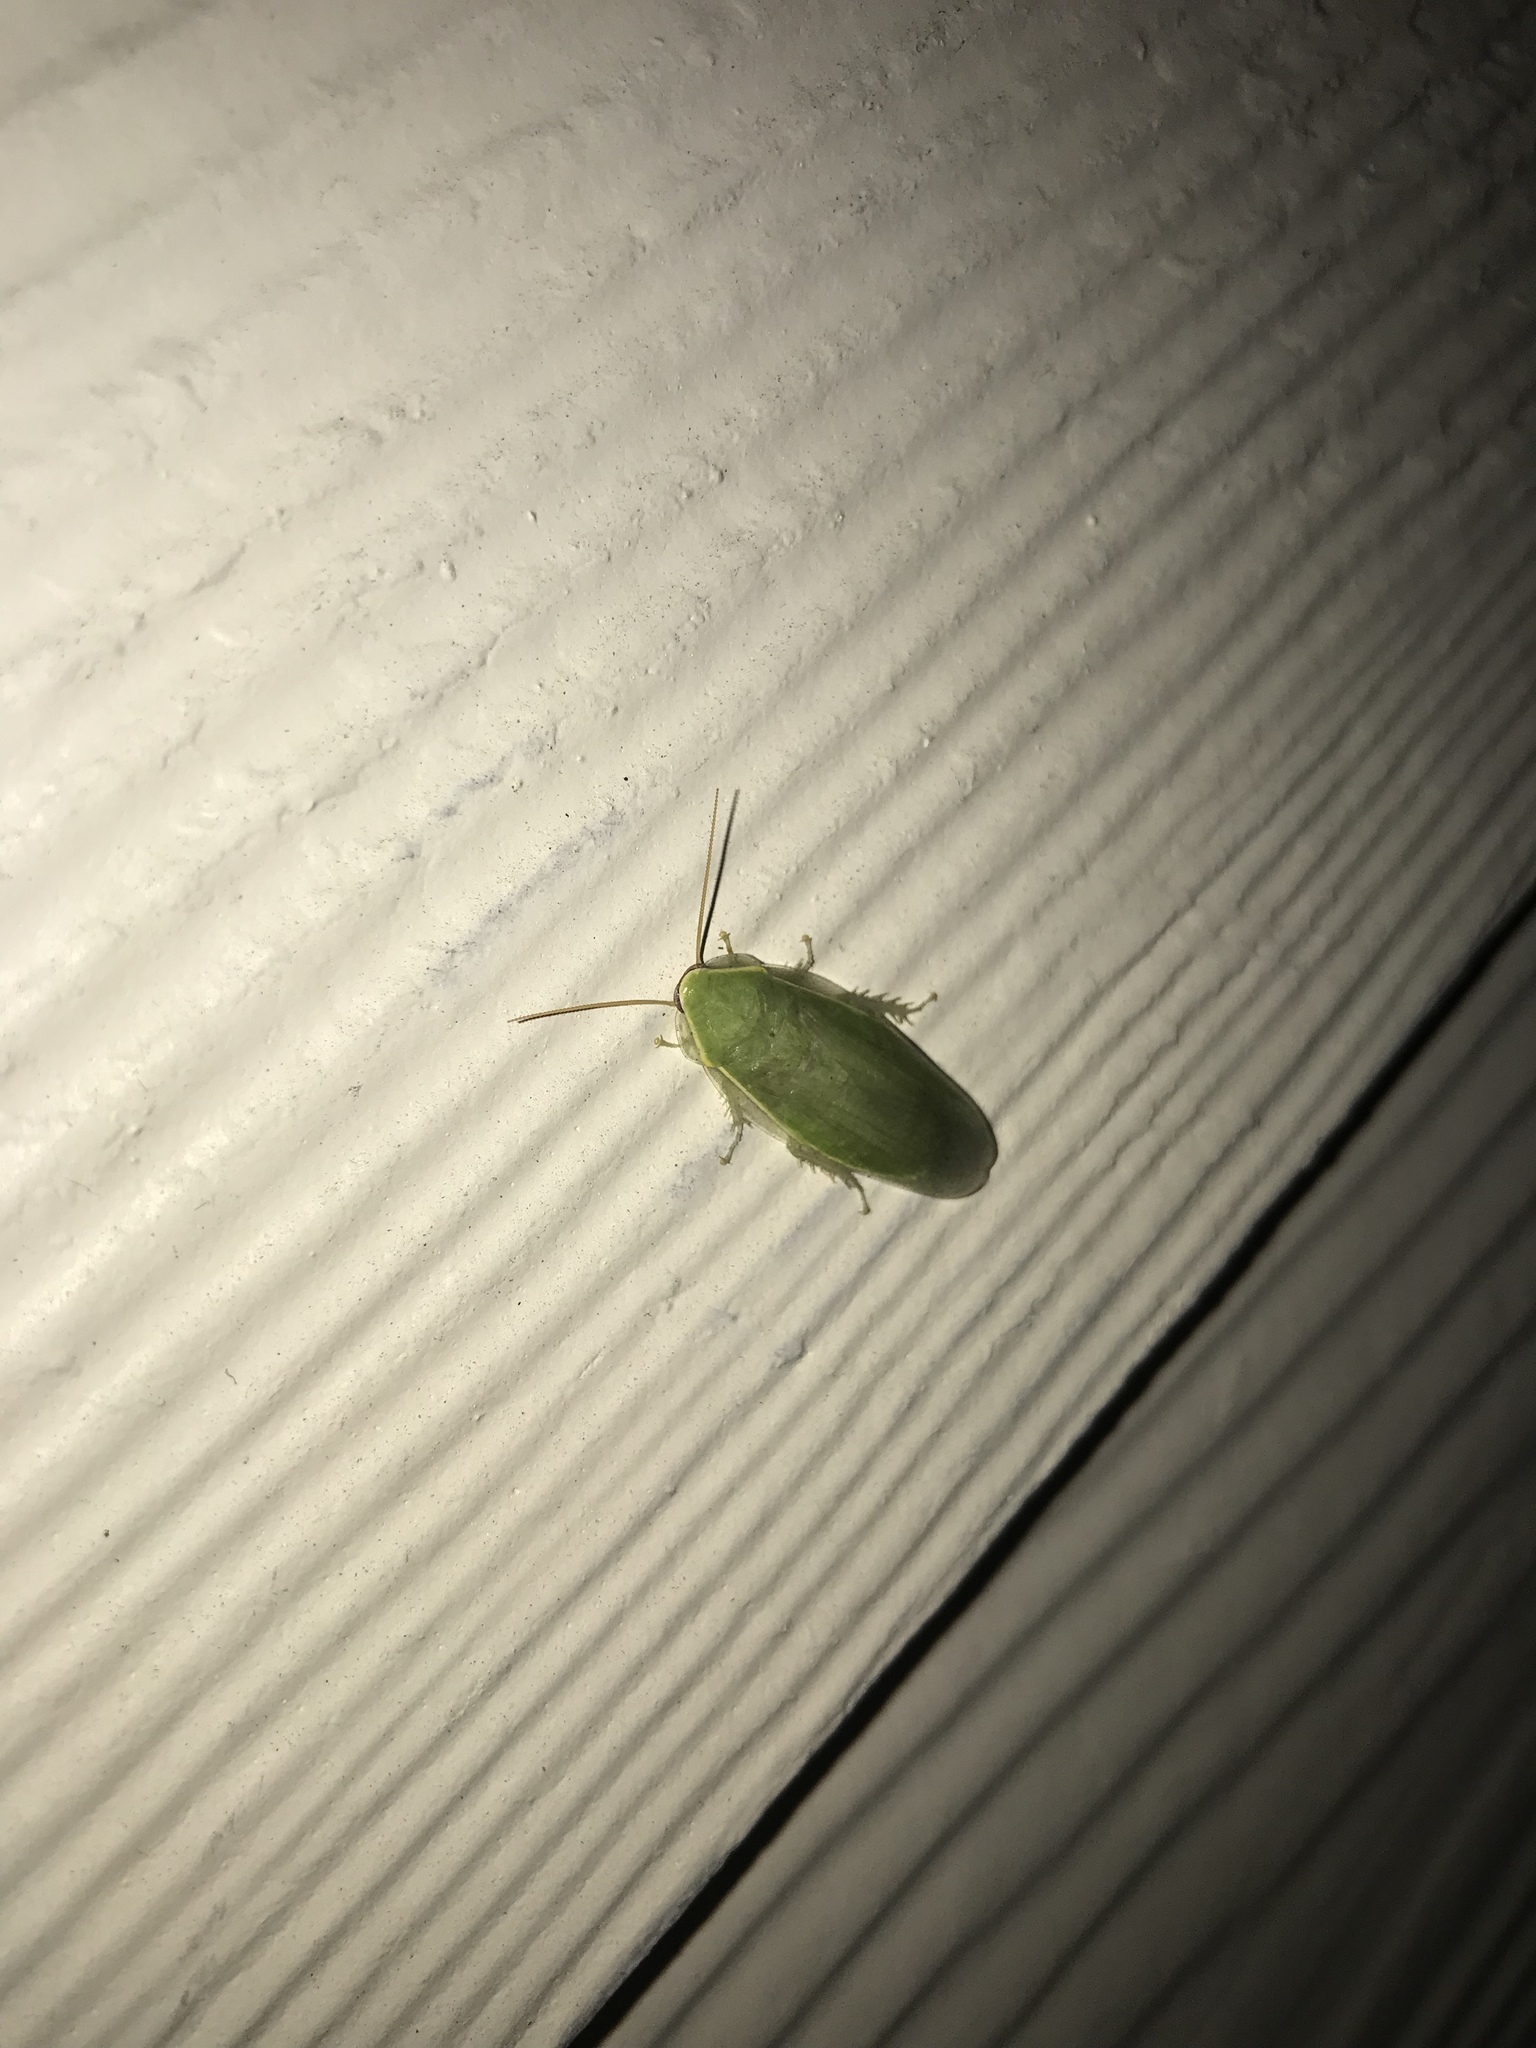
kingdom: Animalia
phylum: Arthropoda
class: Insecta
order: Blattodea
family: Blaberidae
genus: Panchlora
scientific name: Panchlora nivea
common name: Cuban cockroach
